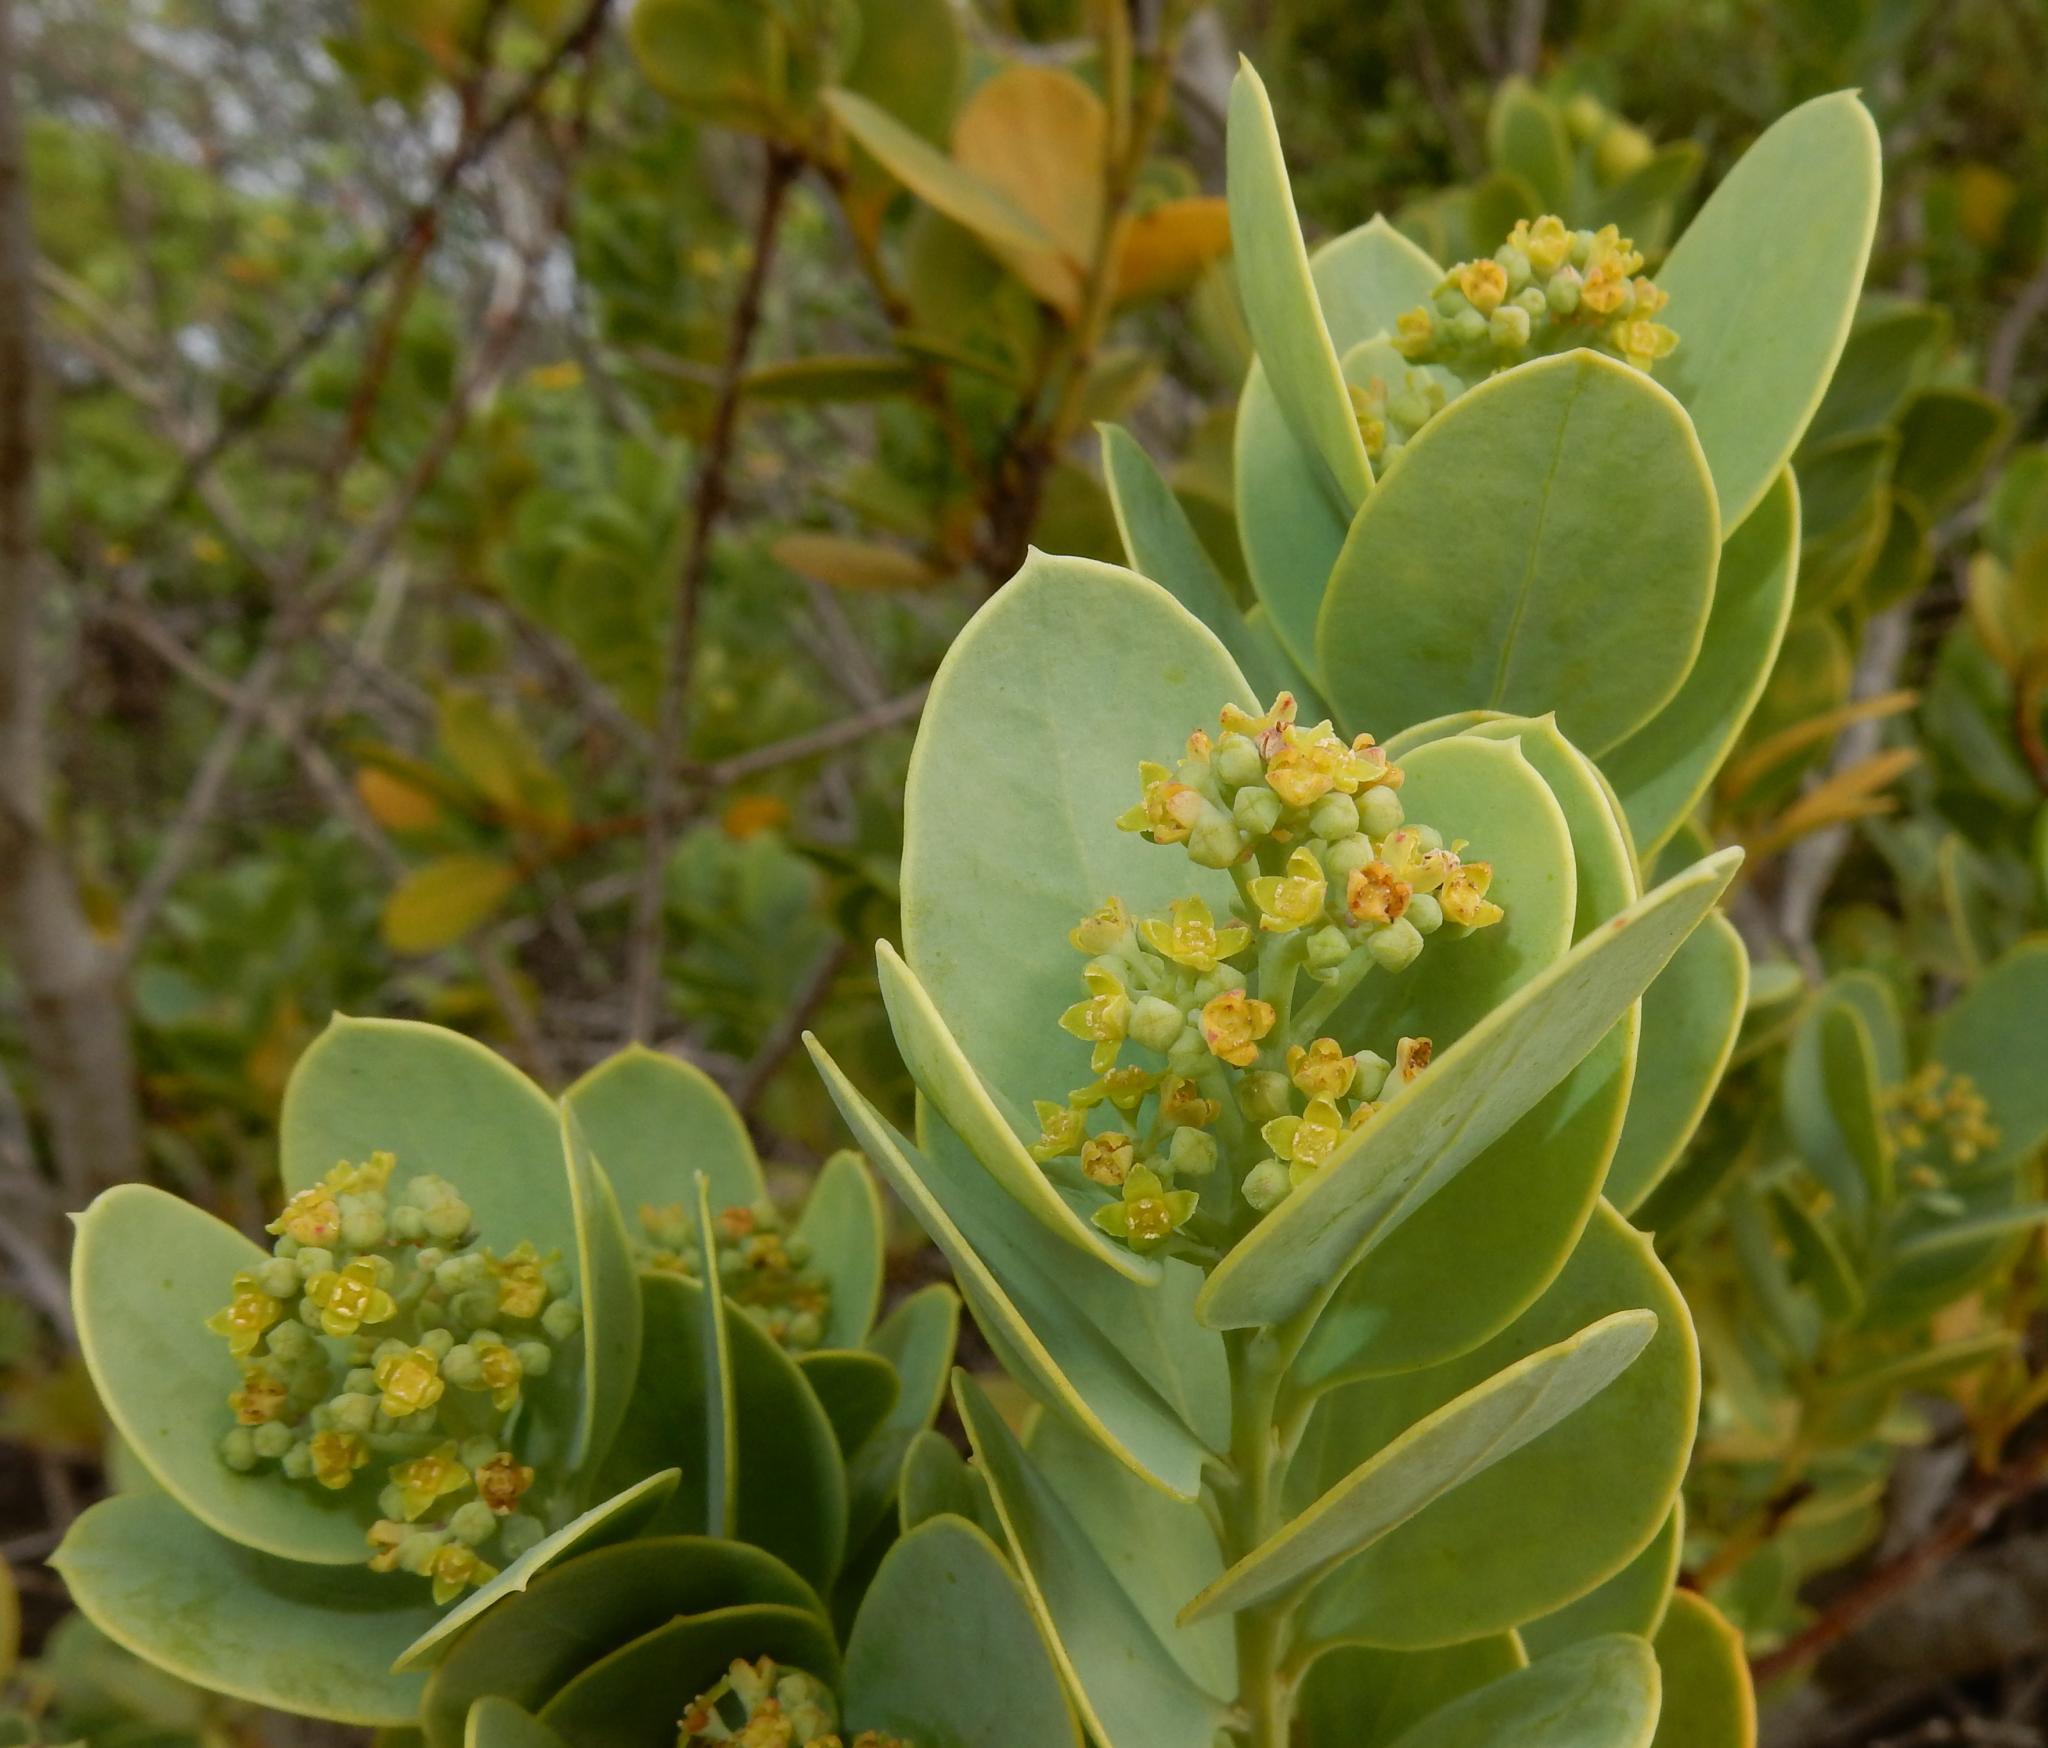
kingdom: Plantae
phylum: Tracheophyta
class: Magnoliopsida
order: Santalales
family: Santalaceae
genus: Osyris
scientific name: Osyris compressa
